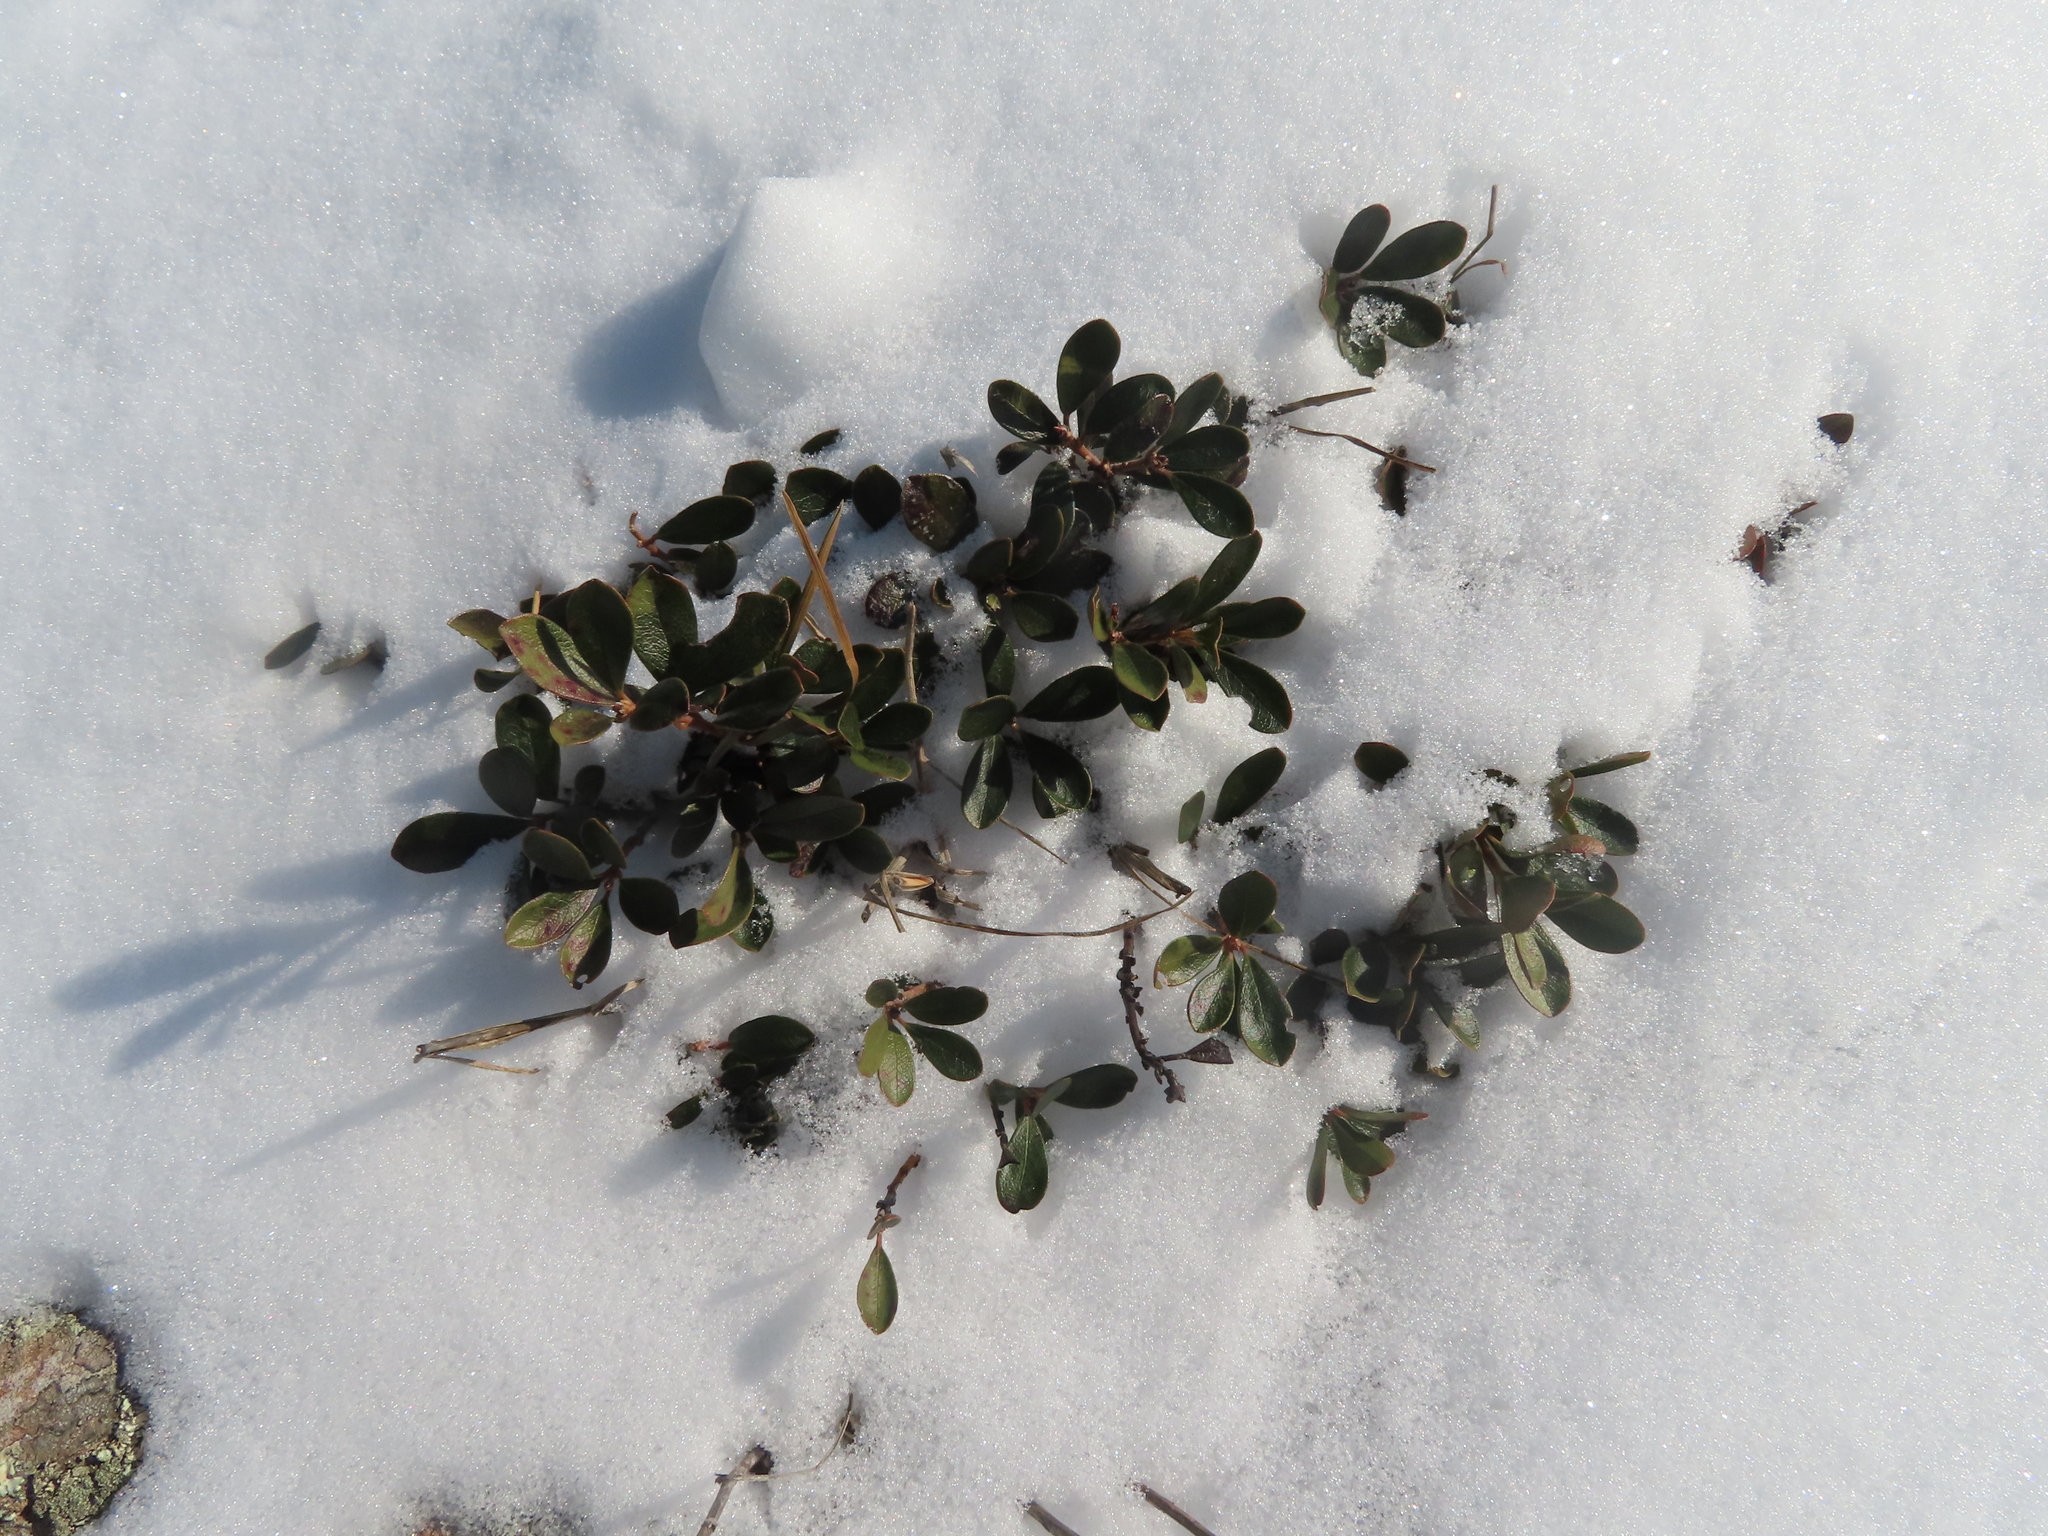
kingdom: Plantae
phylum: Tracheophyta
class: Magnoliopsida
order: Ericales
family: Ericaceae
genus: Arctostaphylos
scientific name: Arctostaphylos uva-ursi
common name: Bearberry
